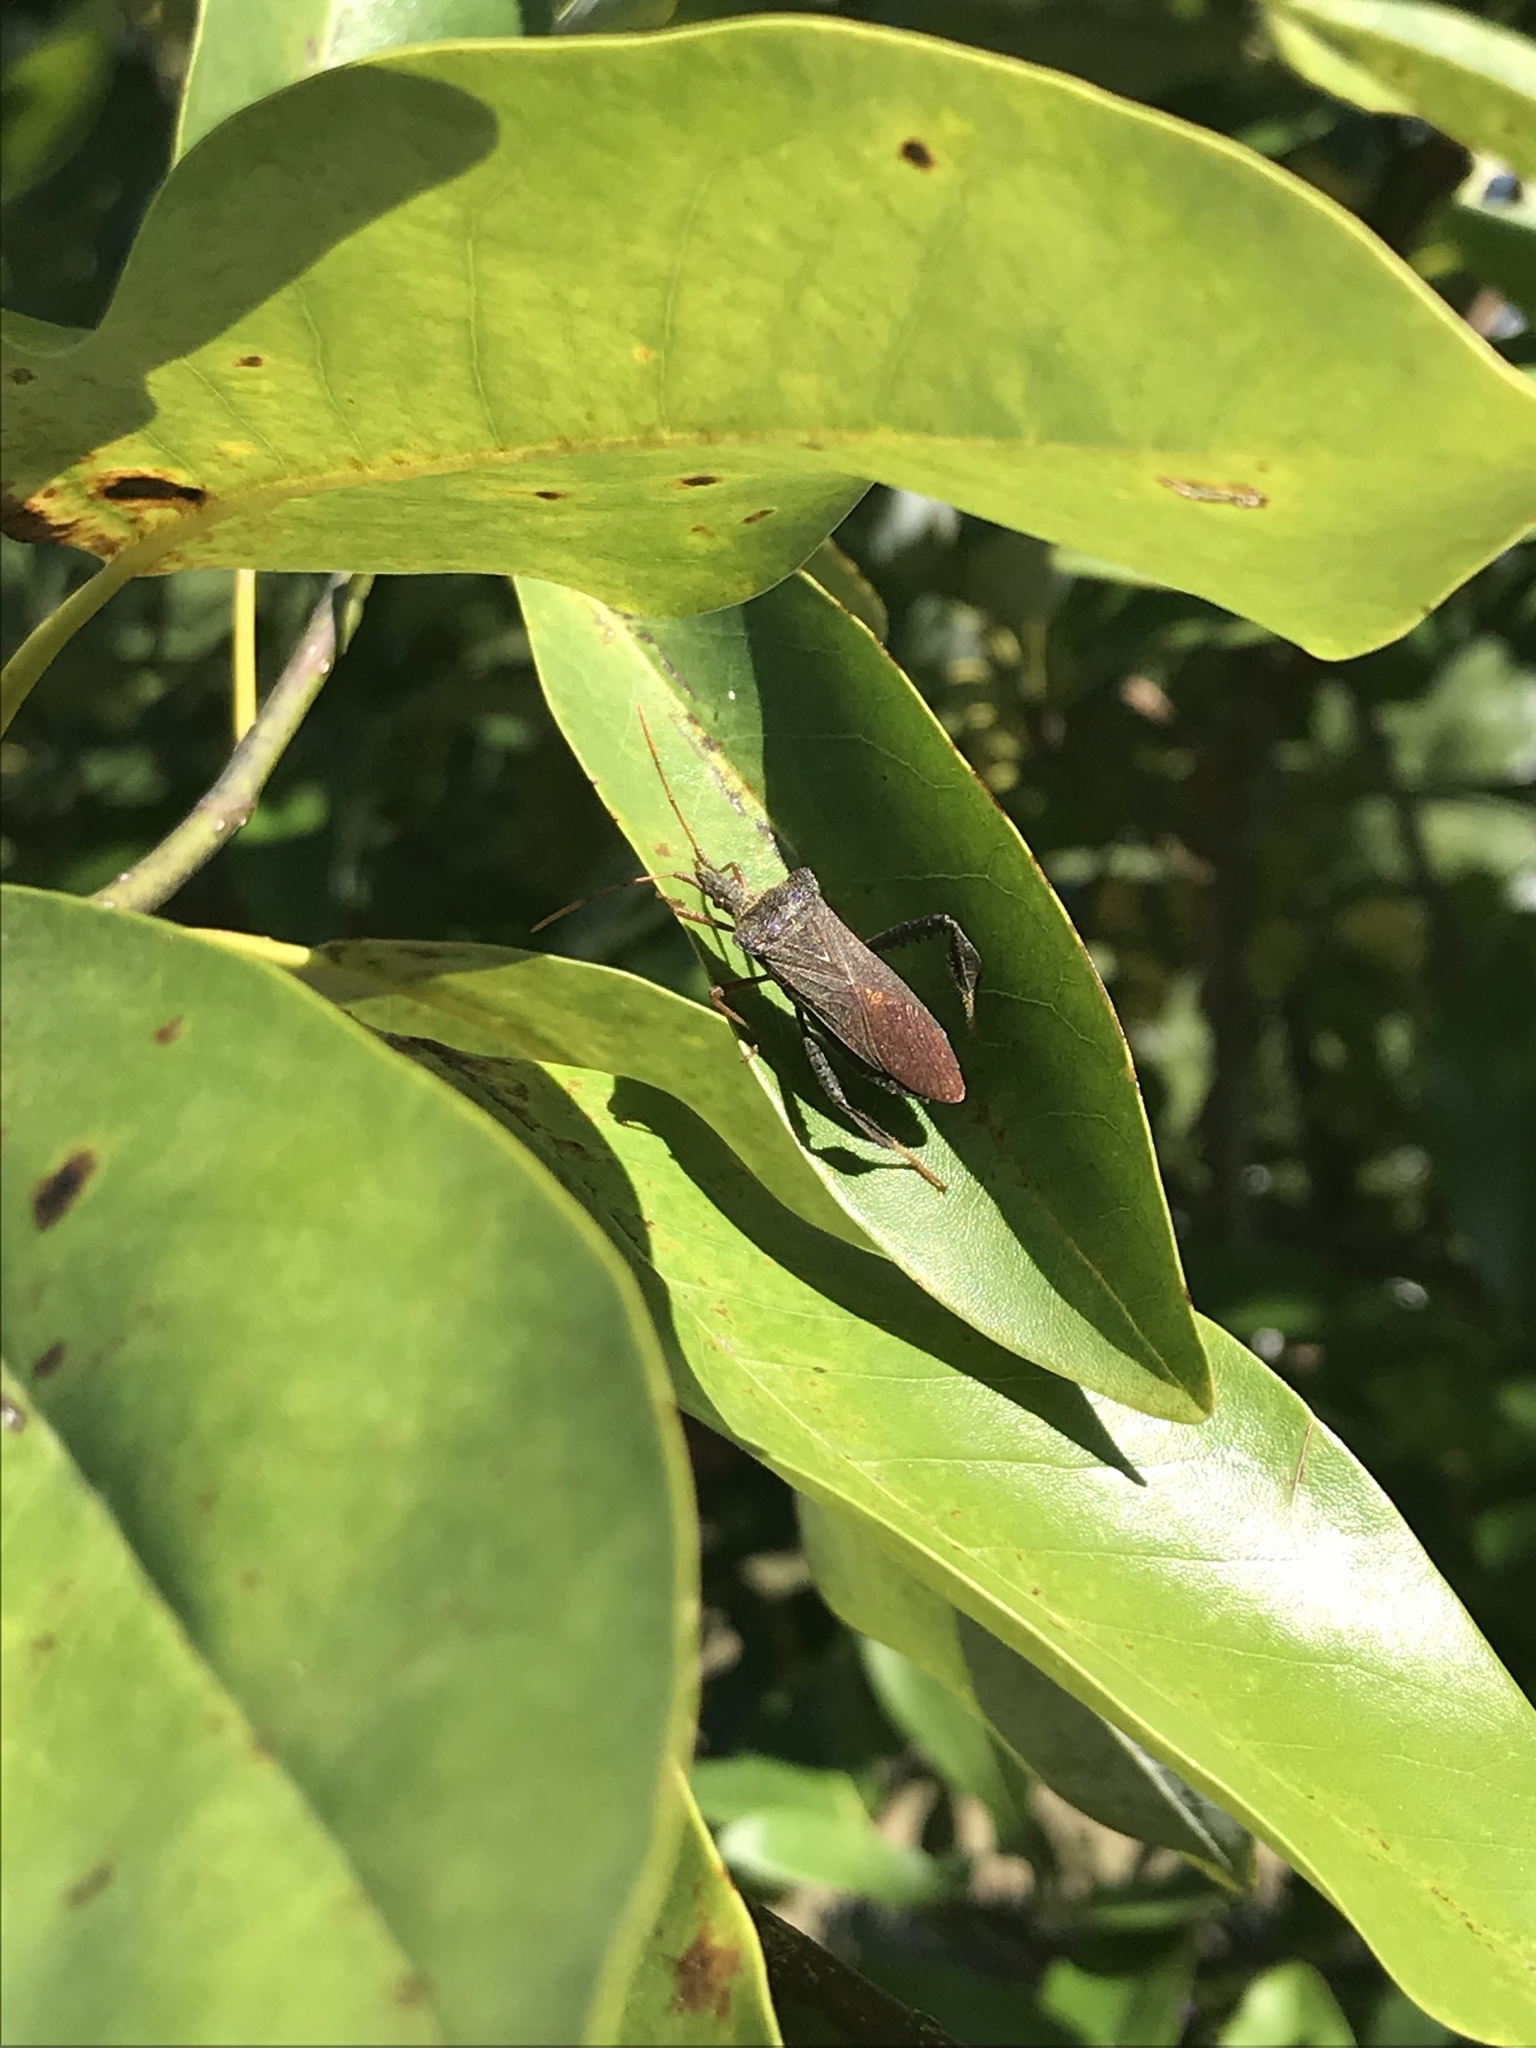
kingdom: Animalia
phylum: Arthropoda
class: Insecta
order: Hemiptera
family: Coreidae
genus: Leptoglossus
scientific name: Leptoglossus fulvicornis
